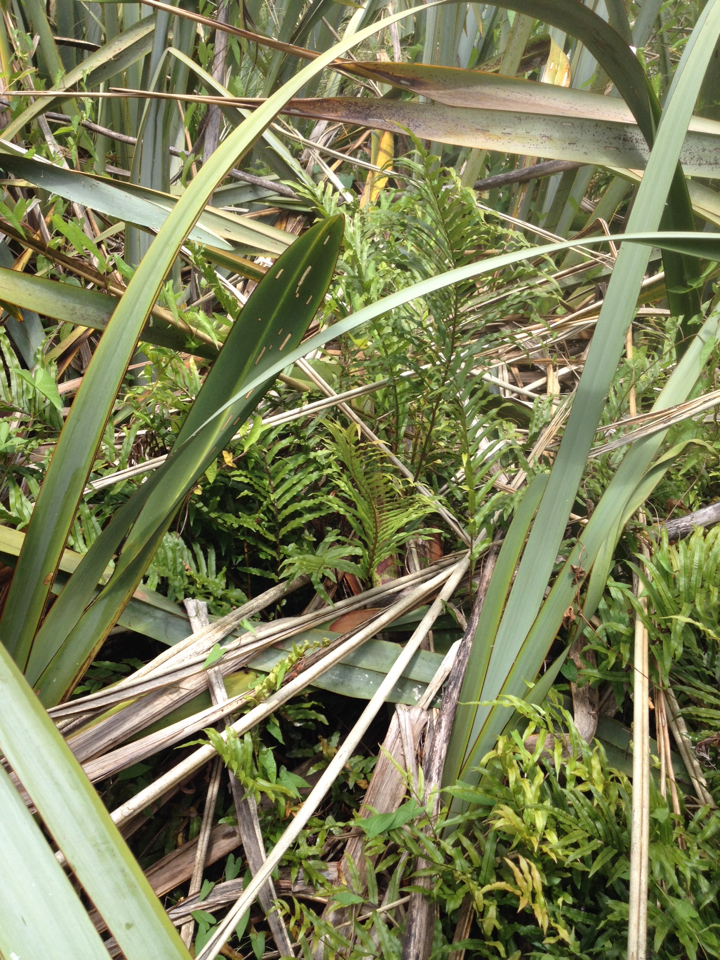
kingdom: Plantae
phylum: Tracheophyta
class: Polypodiopsida
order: Polypodiales
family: Blechnaceae
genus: Parablechnum
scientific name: Parablechnum minus
